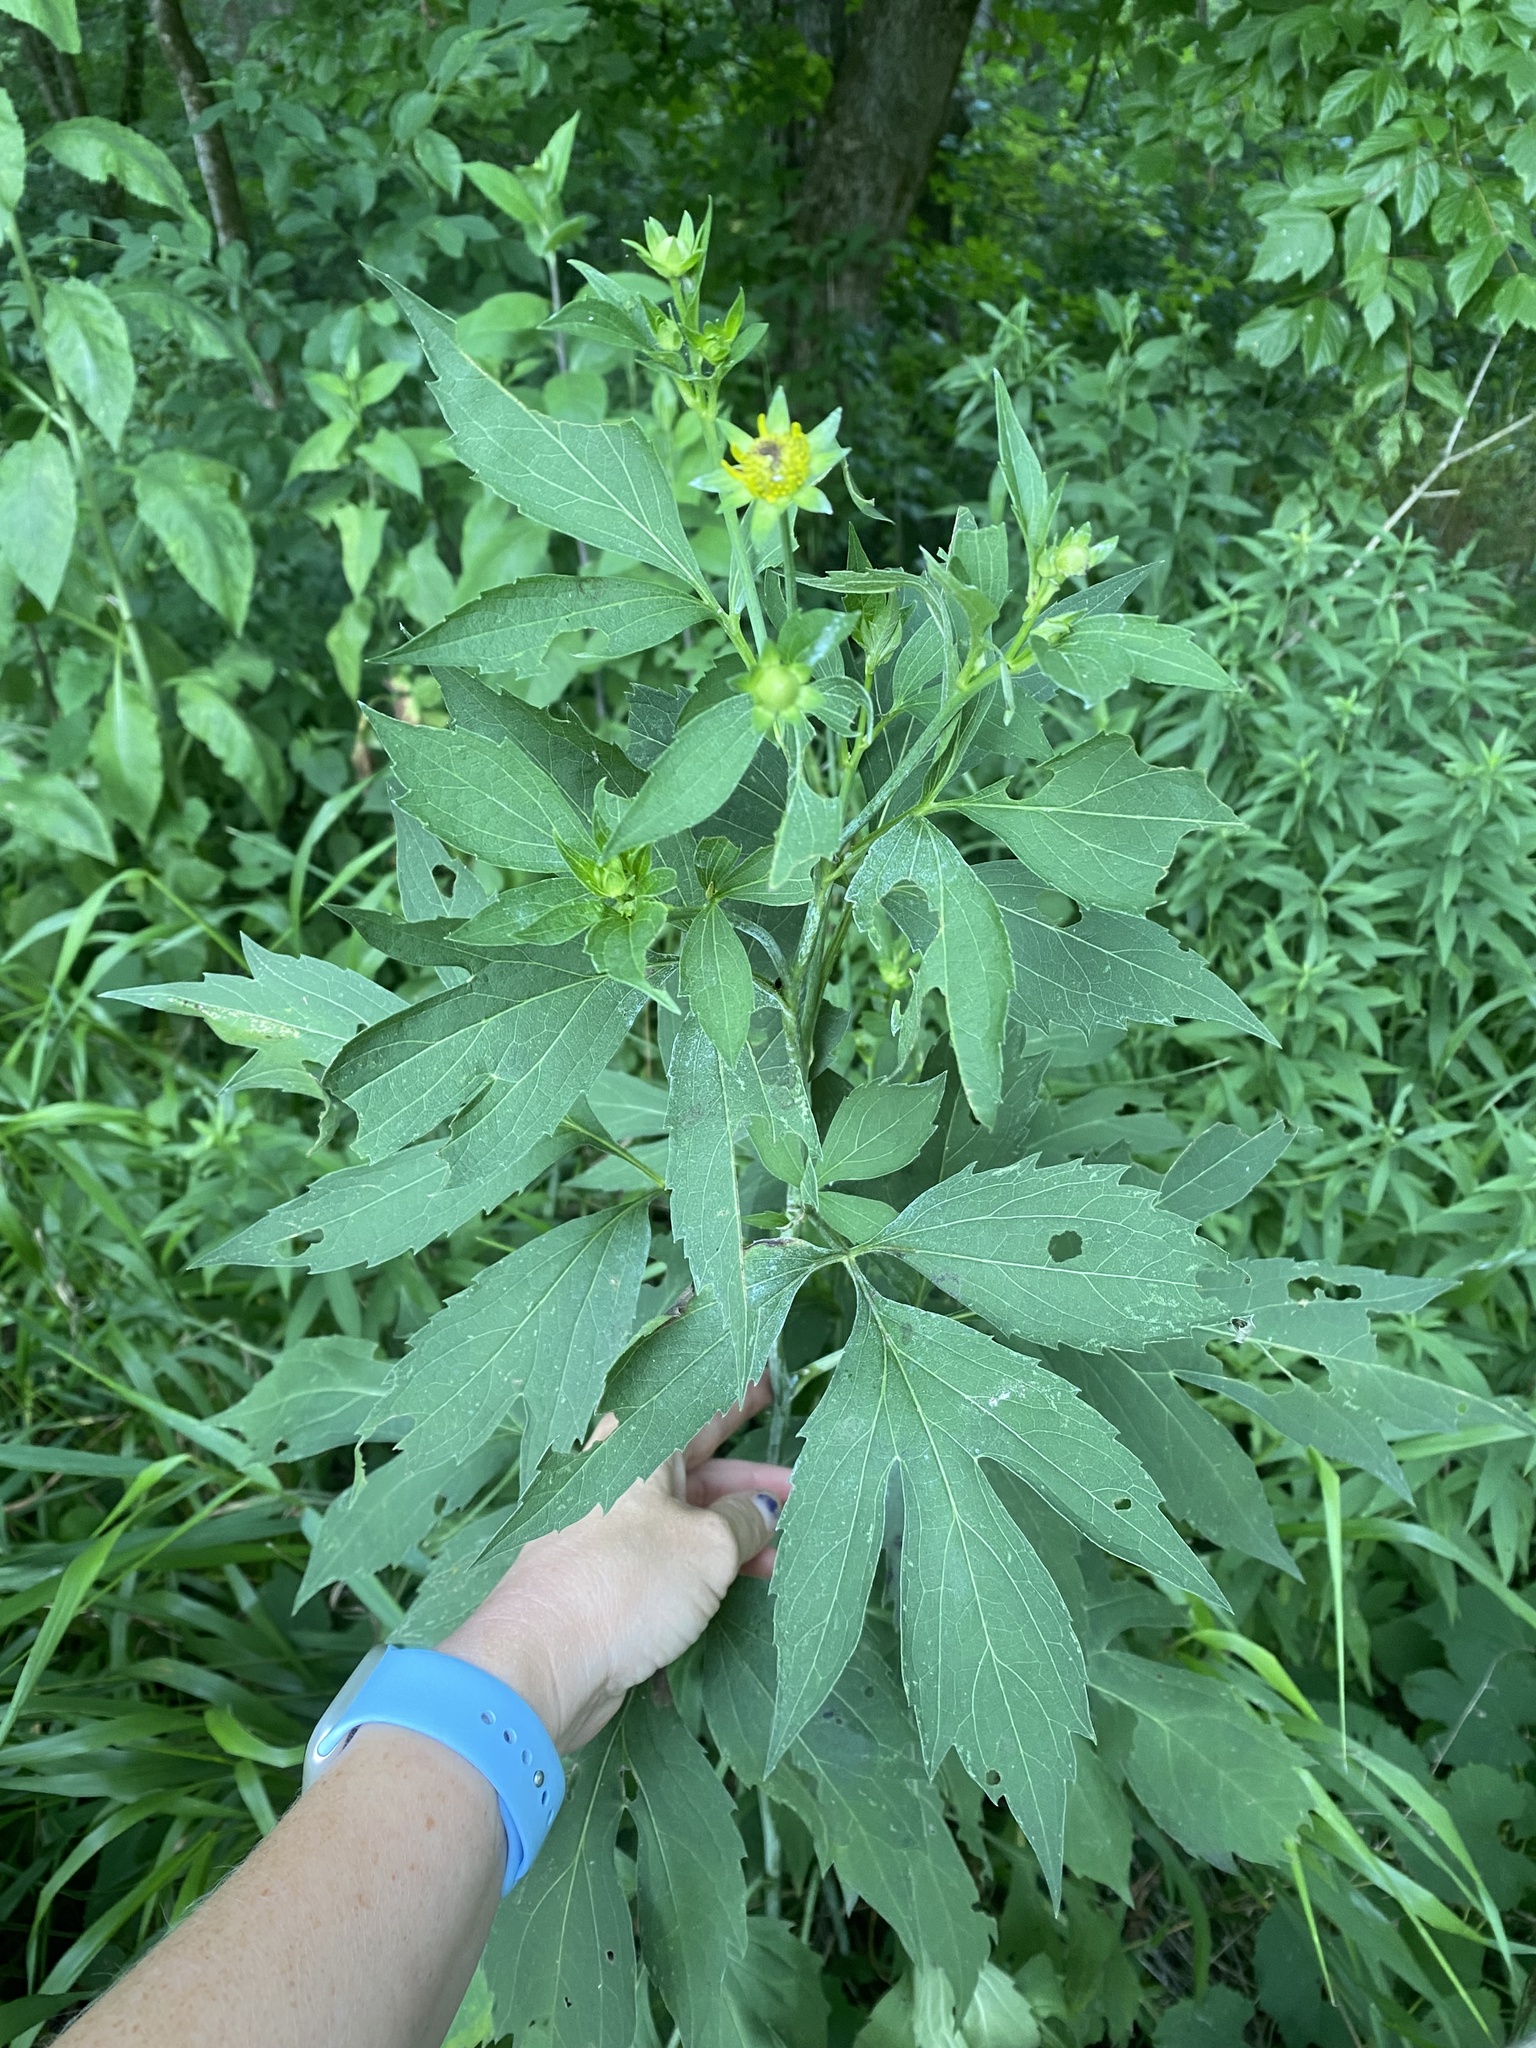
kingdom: Plantae
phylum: Tracheophyta
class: Magnoliopsida
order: Asterales
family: Asteraceae
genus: Rudbeckia
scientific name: Rudbeckia laciniata
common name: Coneflower
